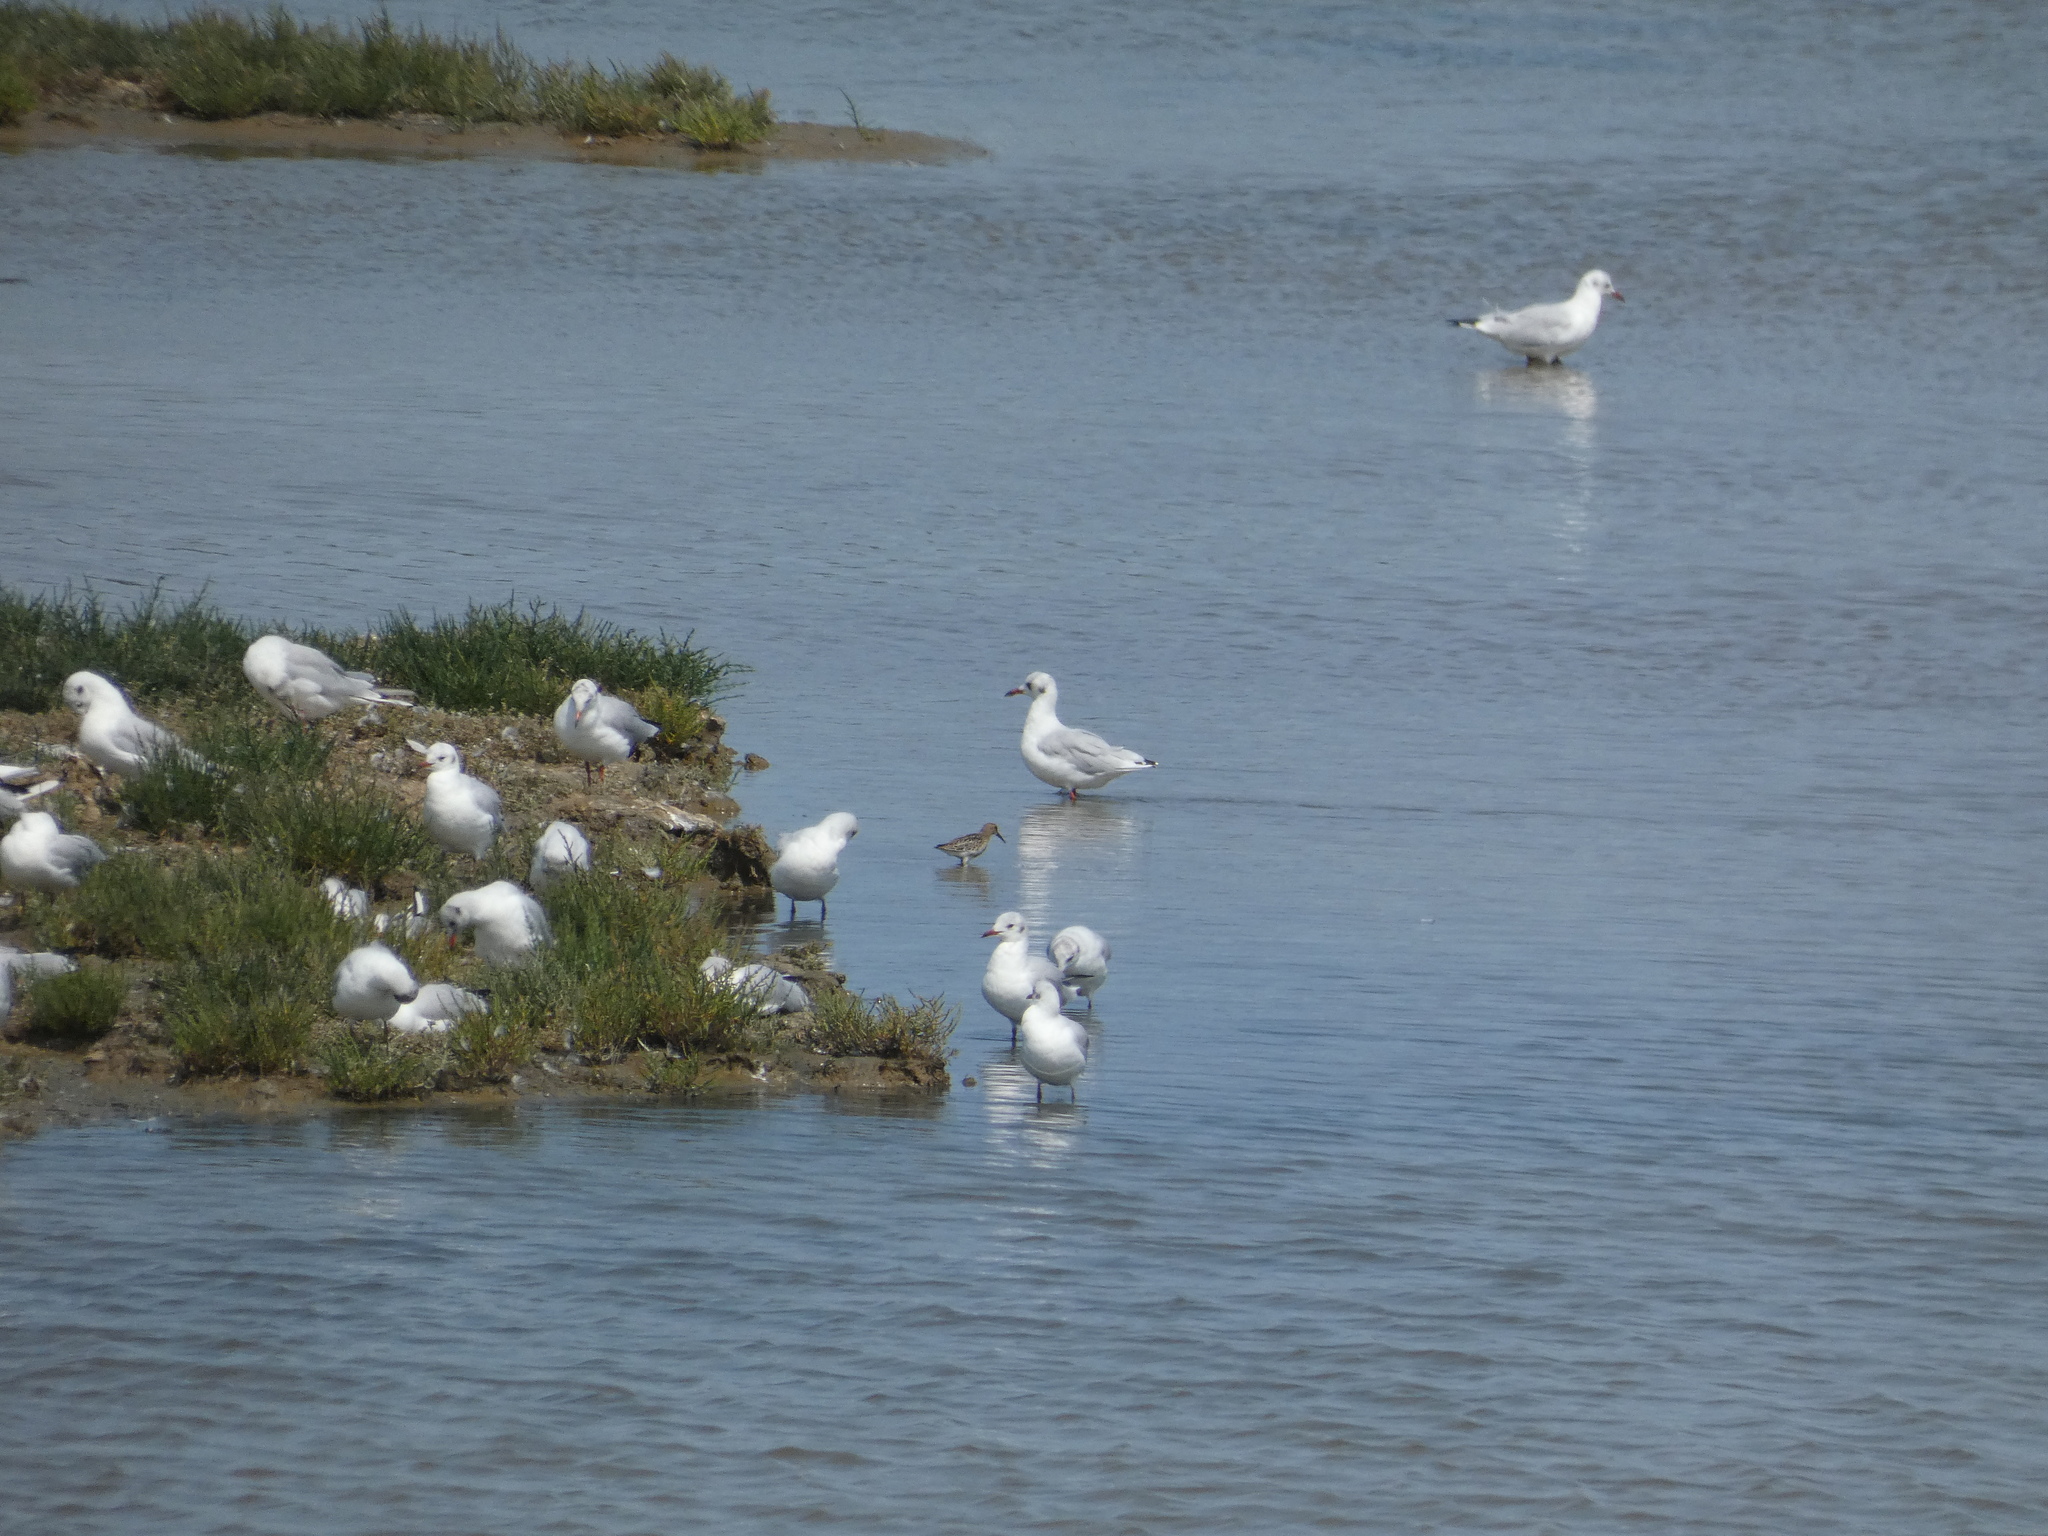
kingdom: Animalia
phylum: Chordata
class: Aves
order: Charadriiformes
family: Laridae
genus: Chroicocephalus
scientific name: Chroicocephalus ridibundus
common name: Black-headed gull
